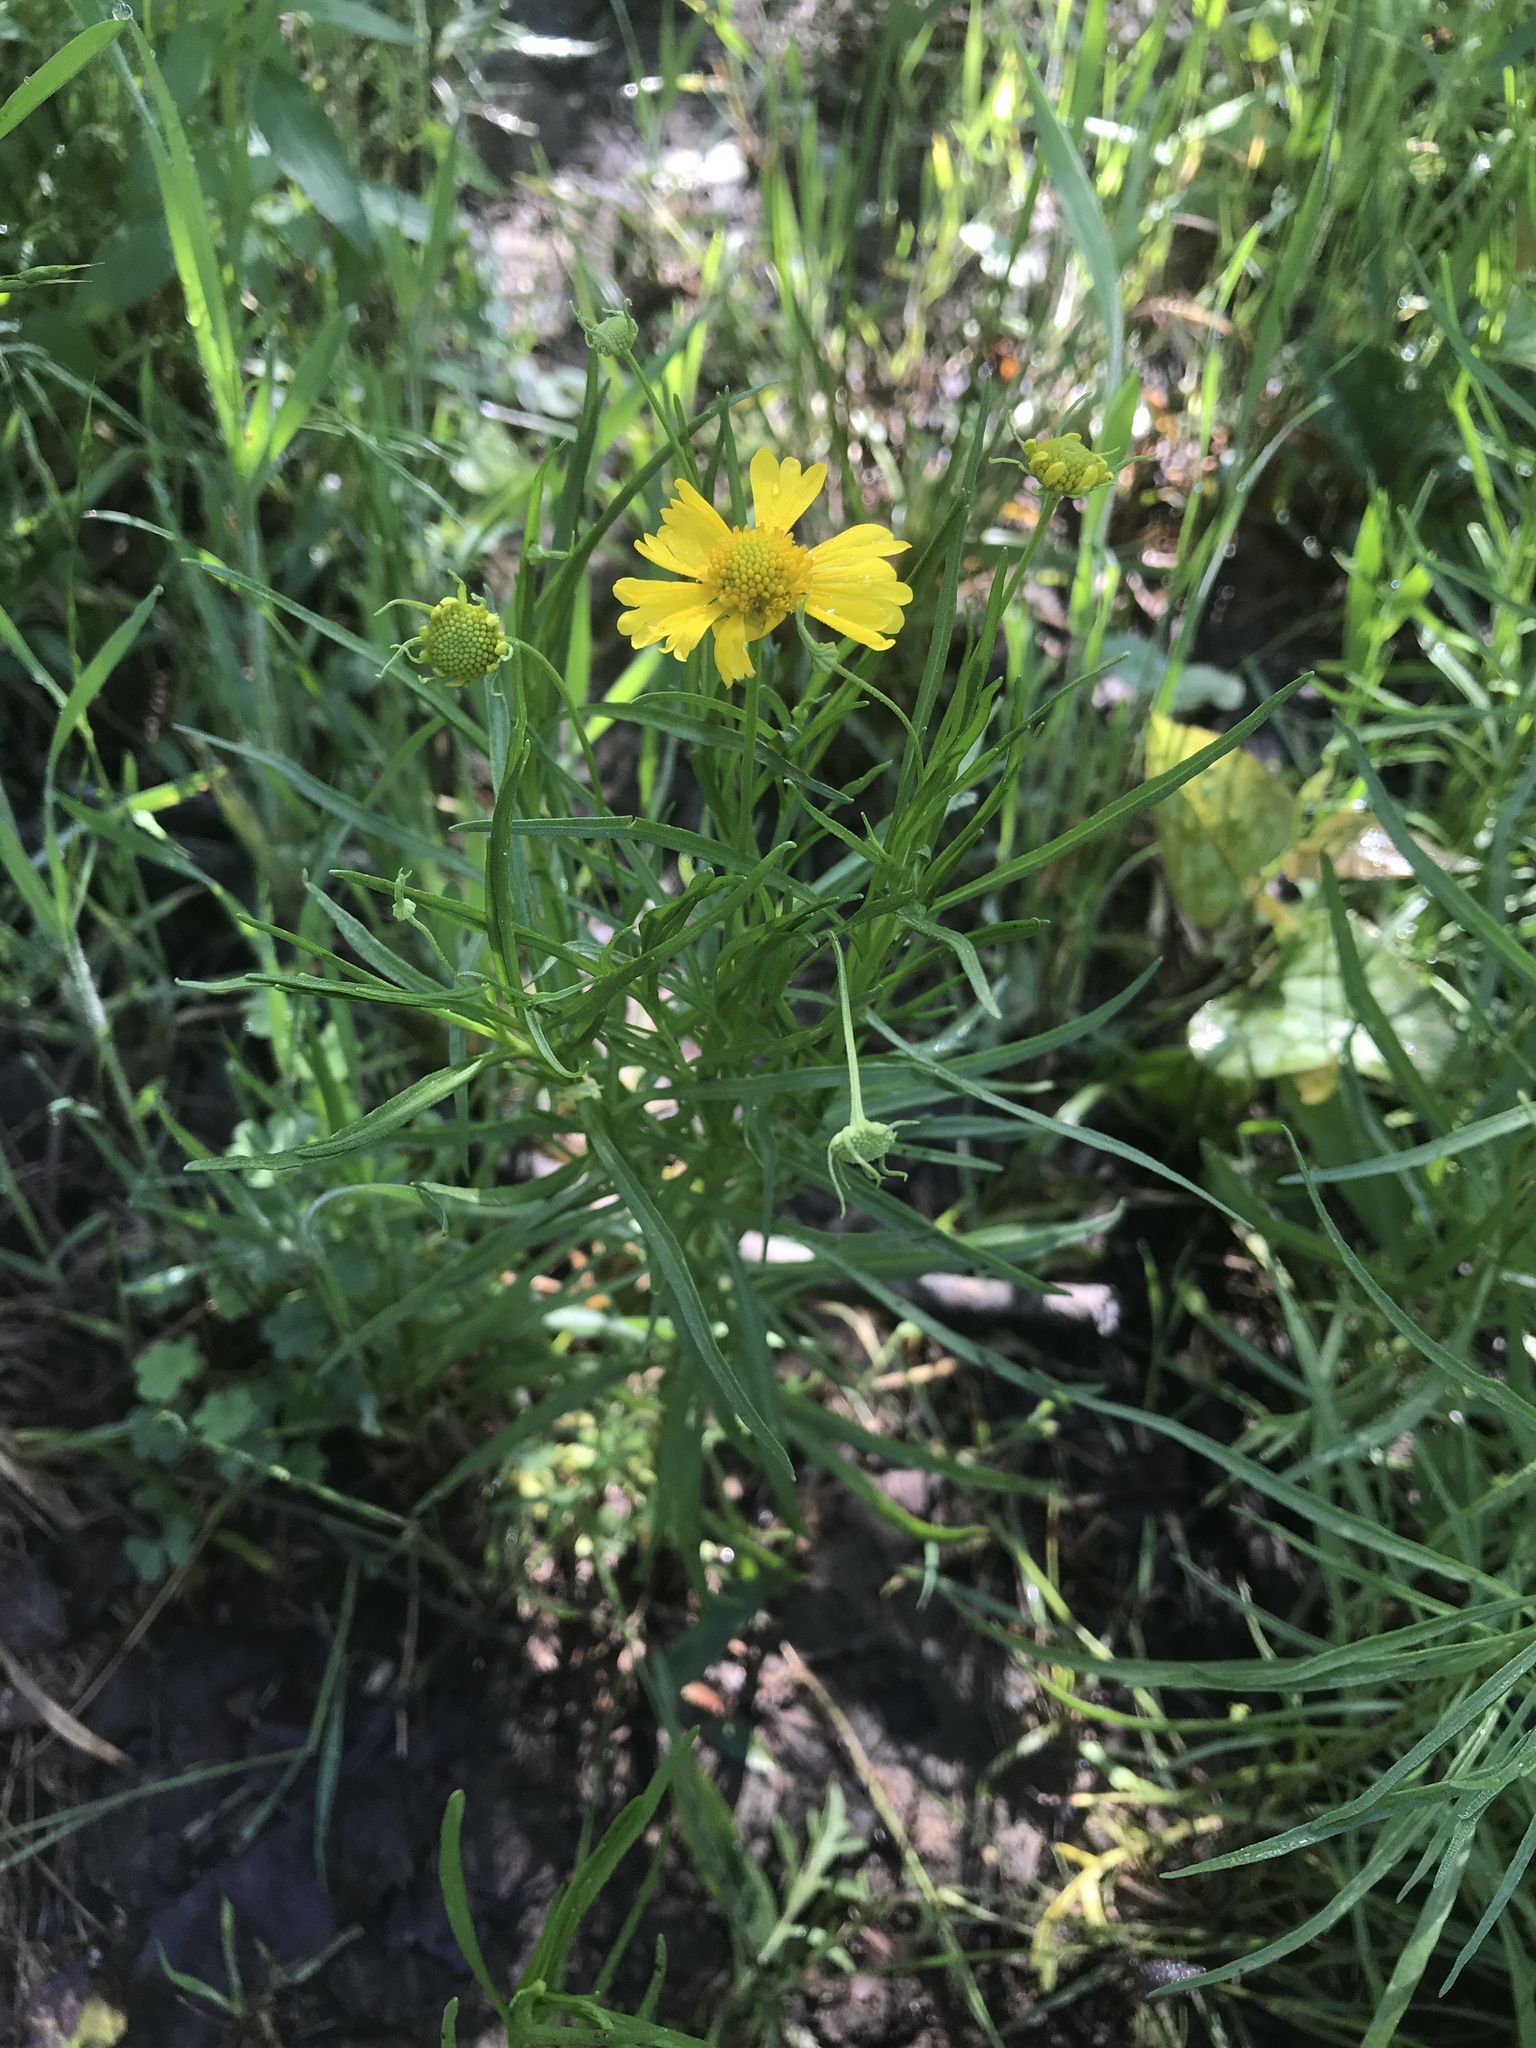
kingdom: Plantae
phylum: Tracheophyta
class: Magnoliopsida
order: Asterales
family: Asteraceae
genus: Helenium
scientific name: Helenium amarum
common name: Bitter sneezeweed
